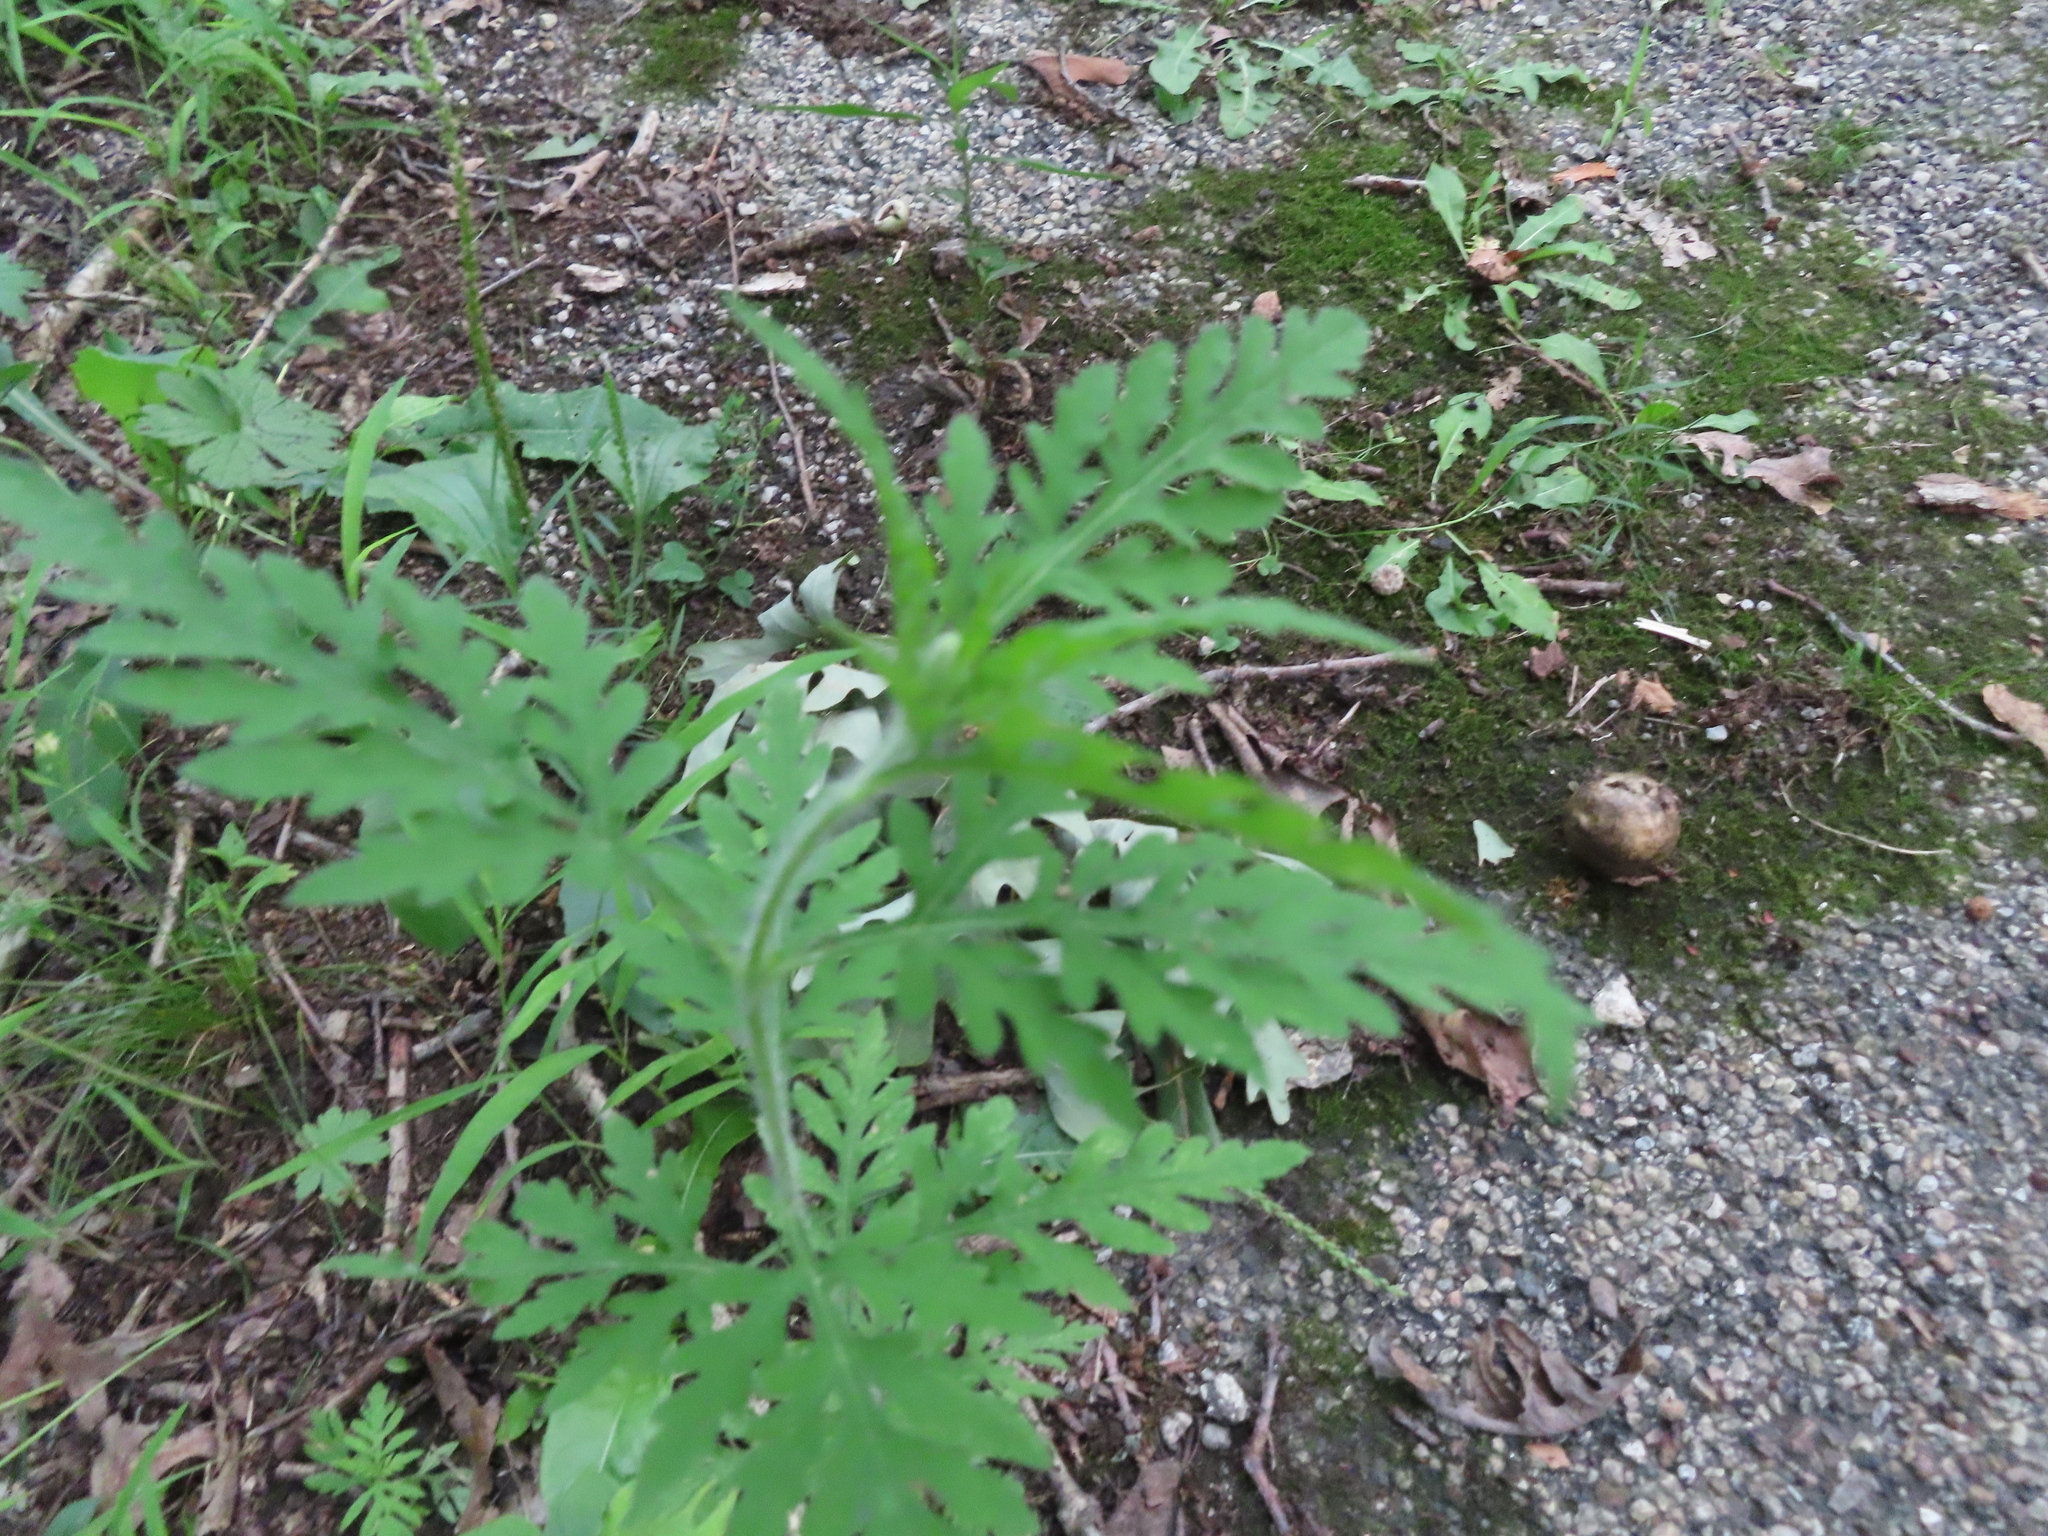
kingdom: Plantae
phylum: Tracheophyta
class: Magnoliopsida
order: Asterales
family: Asteraceae
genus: Ambrosia
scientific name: Ambrosia artemisiifolia
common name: Annual ragweed
